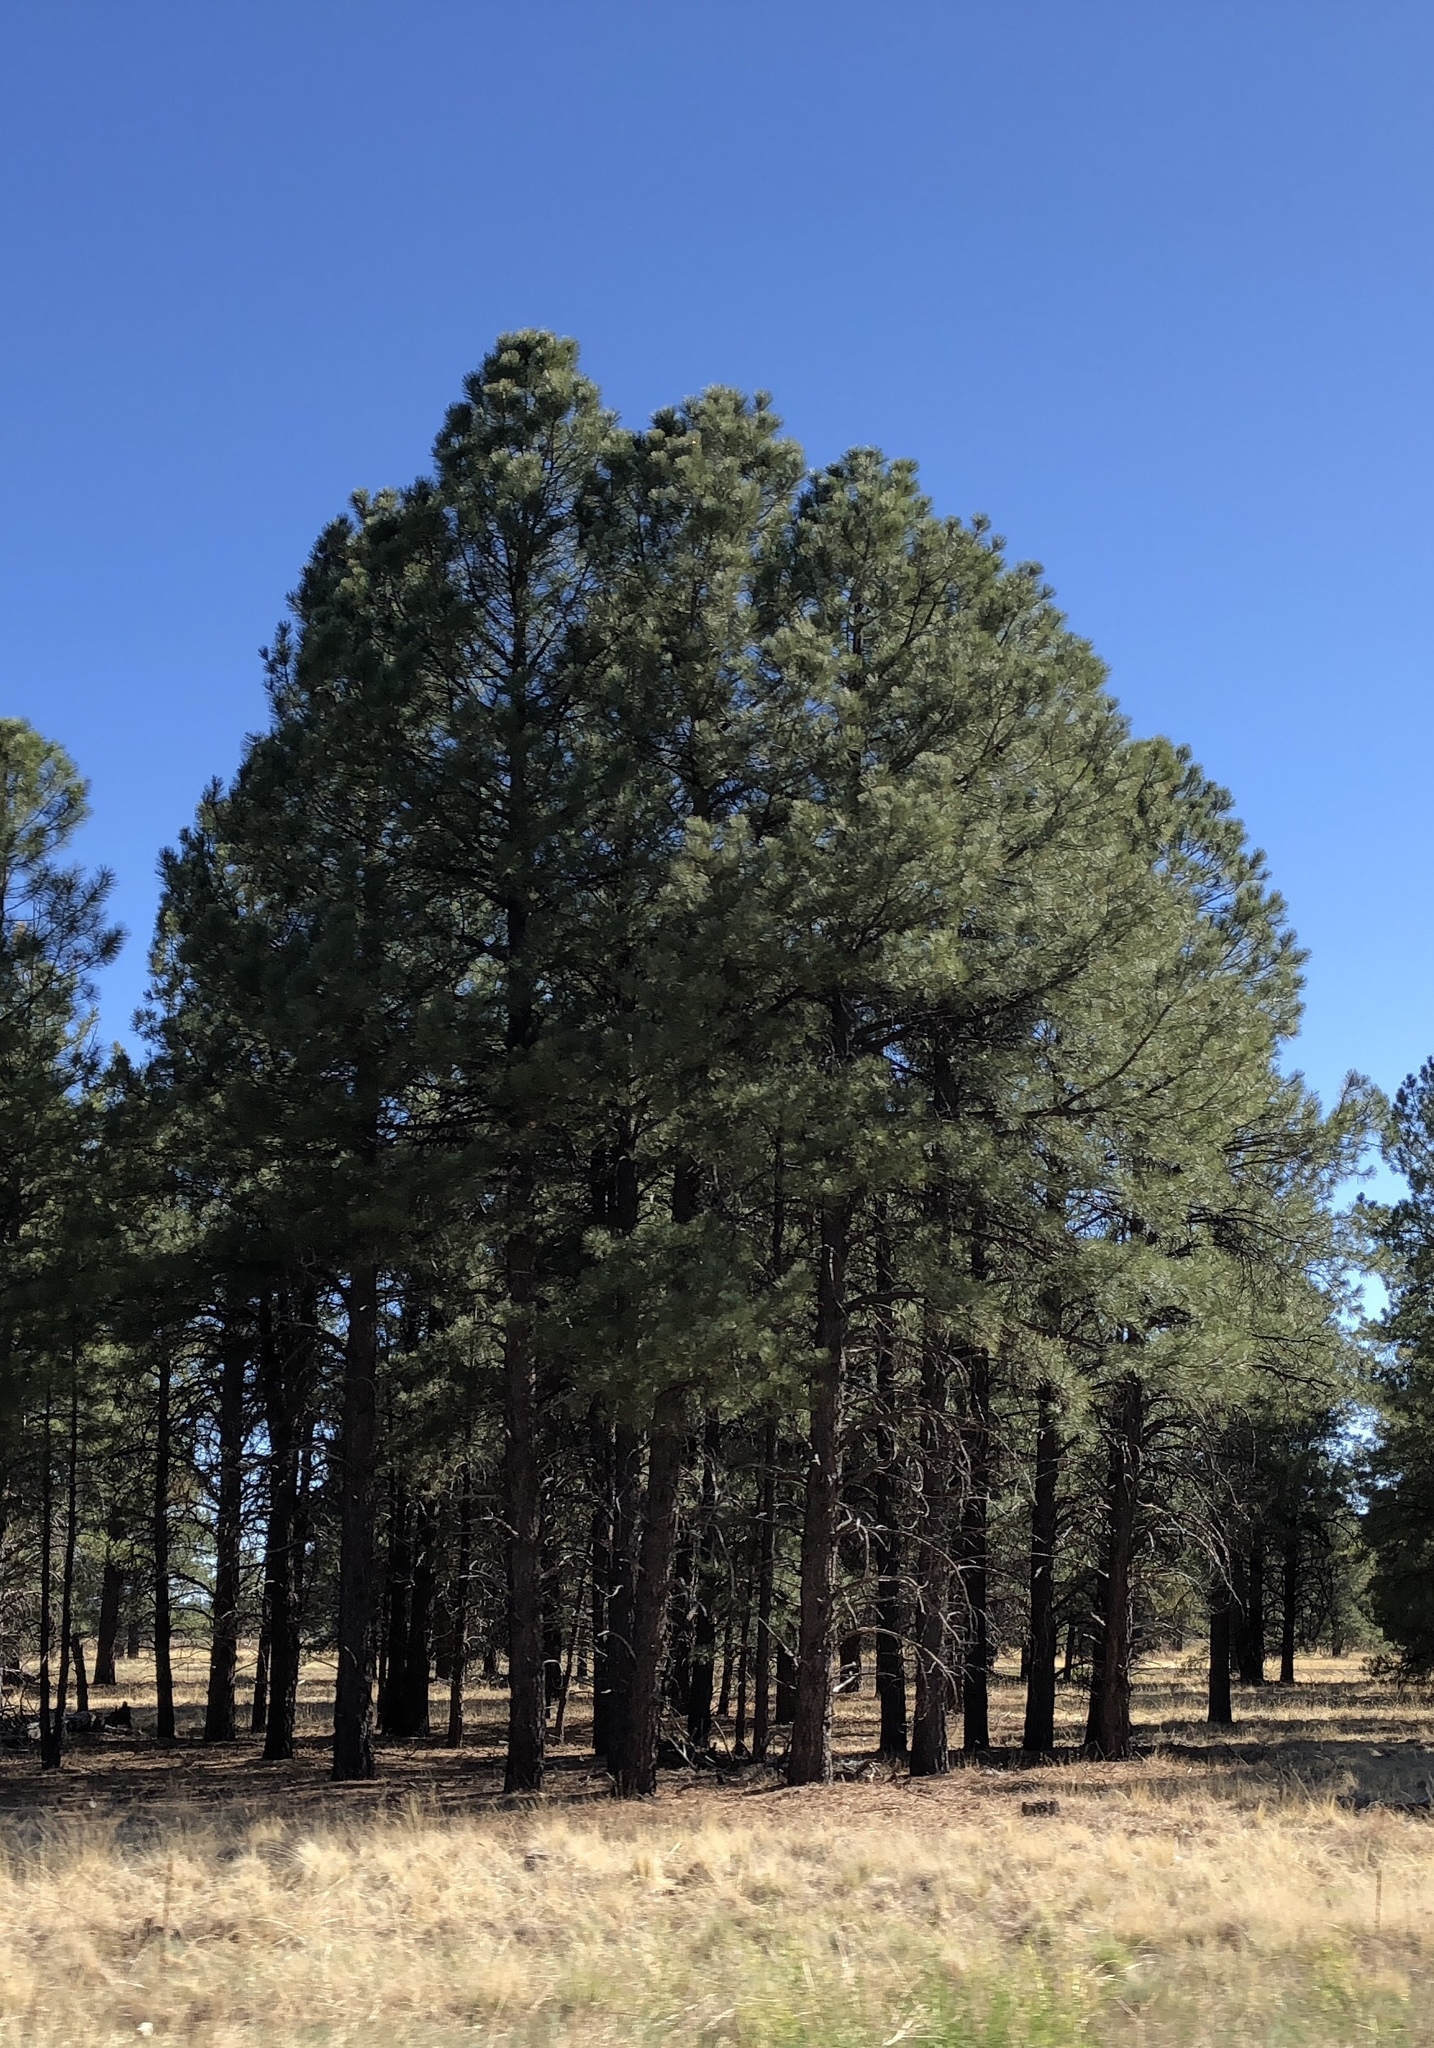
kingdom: Plantae
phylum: Tracheophyta
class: Pinopsida
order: Pinales
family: Pinaceae
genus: Pinus
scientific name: Pinus ponderosa
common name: Western yellow-pine
